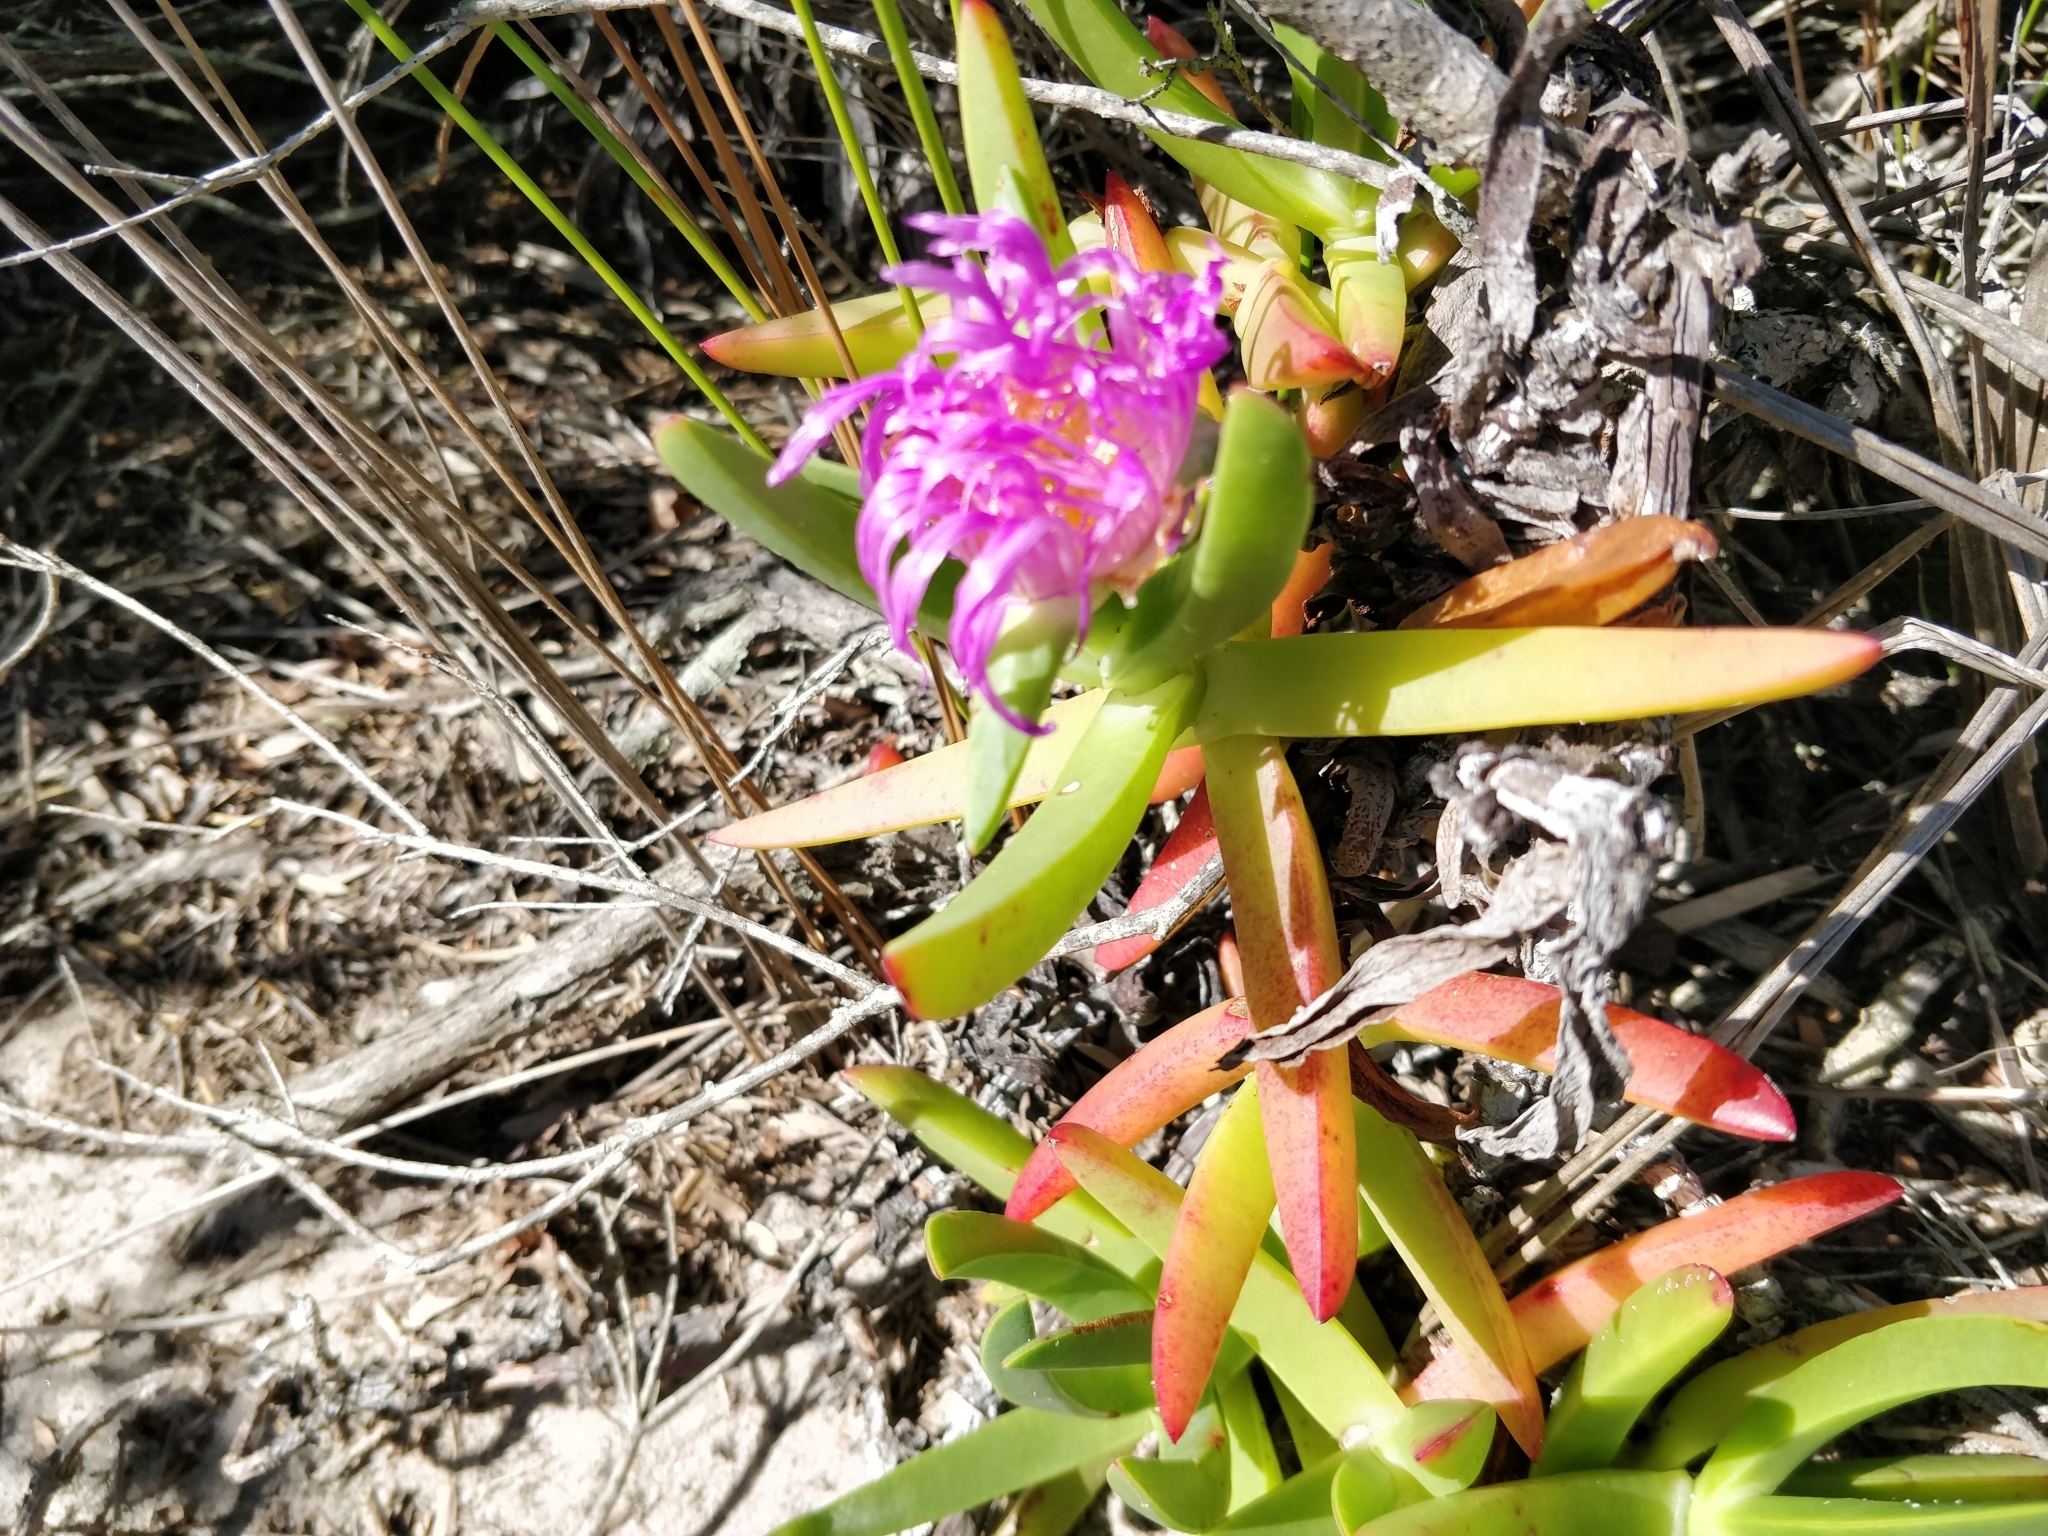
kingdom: Plantae
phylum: Tracheophyta
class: Magnoliopsida
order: Caryophyllales
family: Aizoaceae
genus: Carpobrotus
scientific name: Carpobrotus glaucescens
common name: Angular sea-fig
